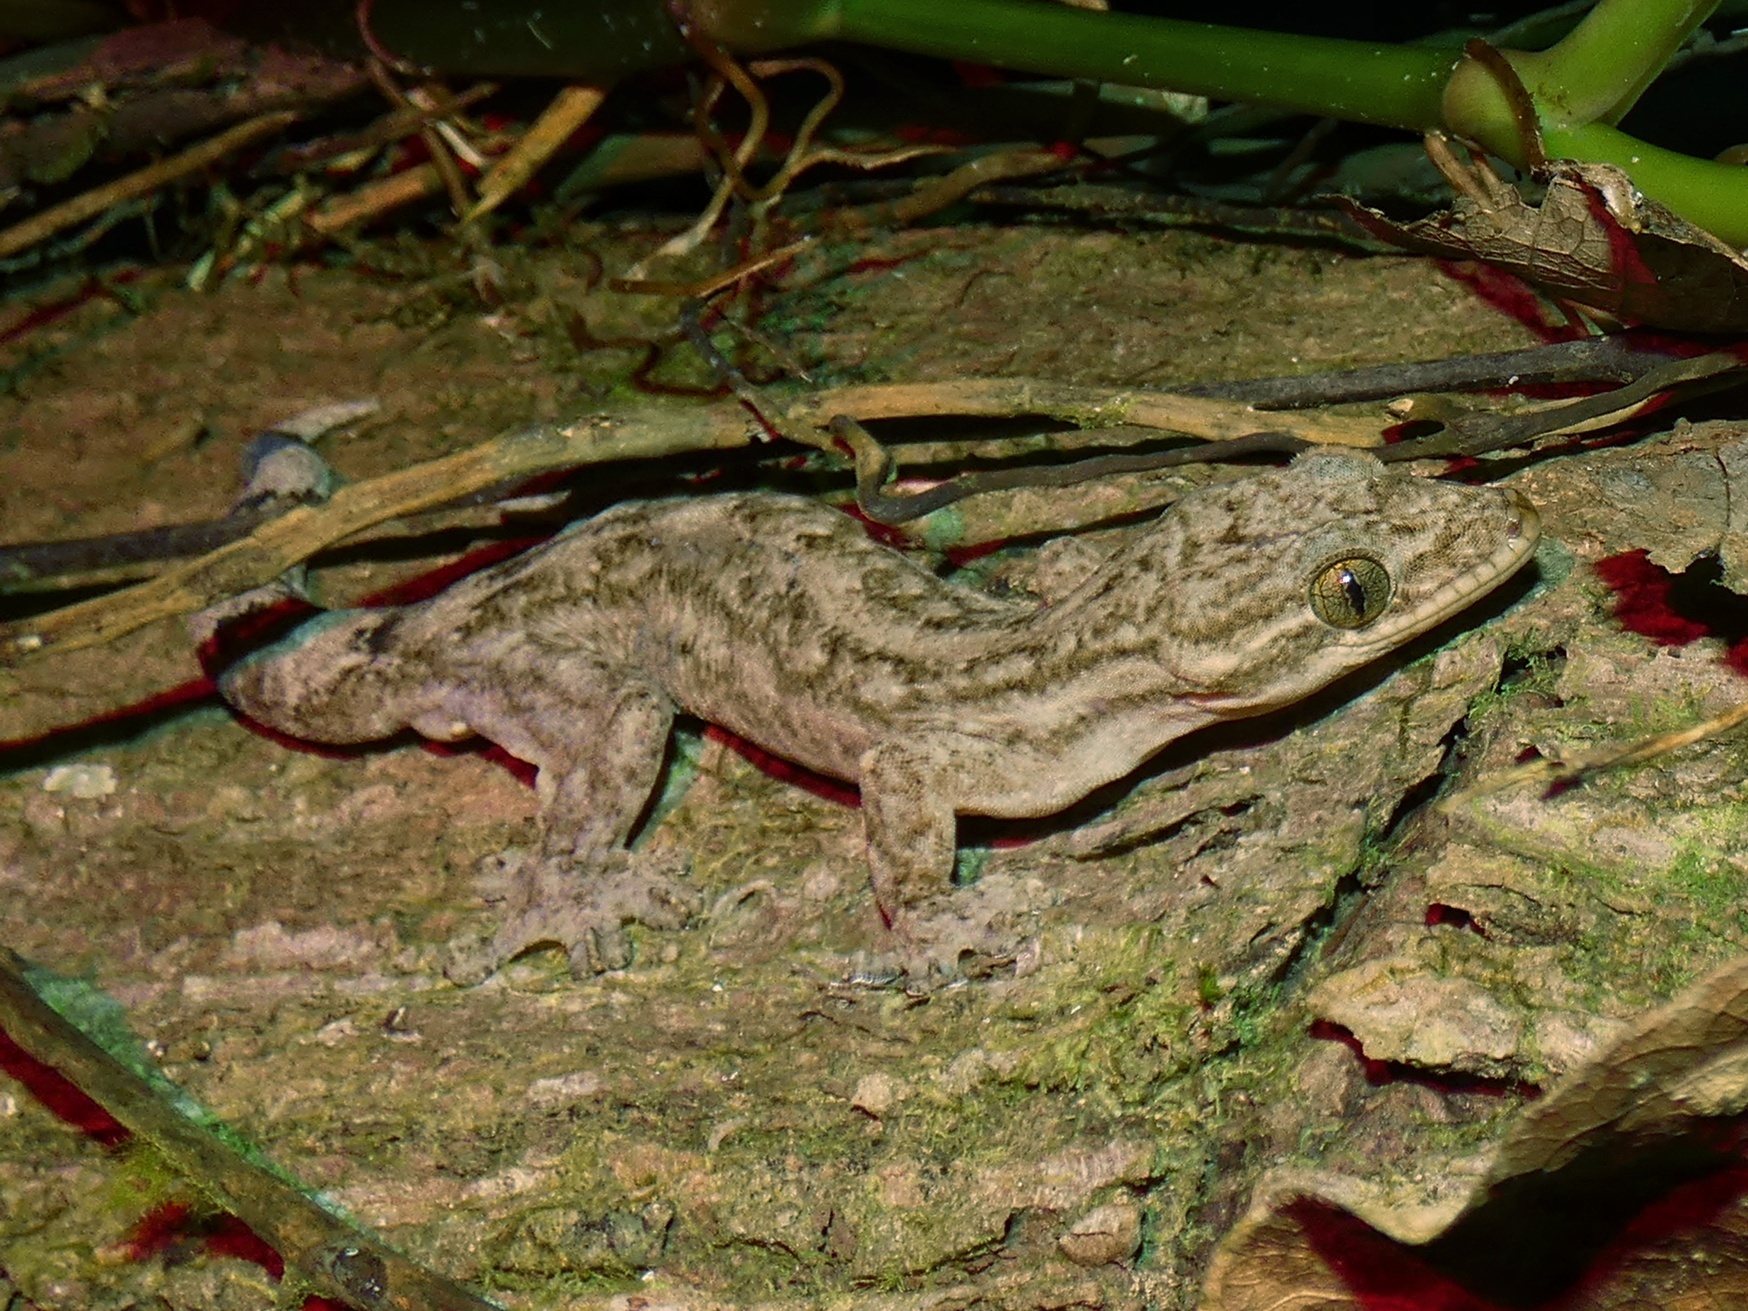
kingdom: Animalia
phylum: Chordata
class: Squamata
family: Phyllodactylidae
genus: Thecadactylus
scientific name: Thecadactylus rapicauda
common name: Turnip-tailed gecko
